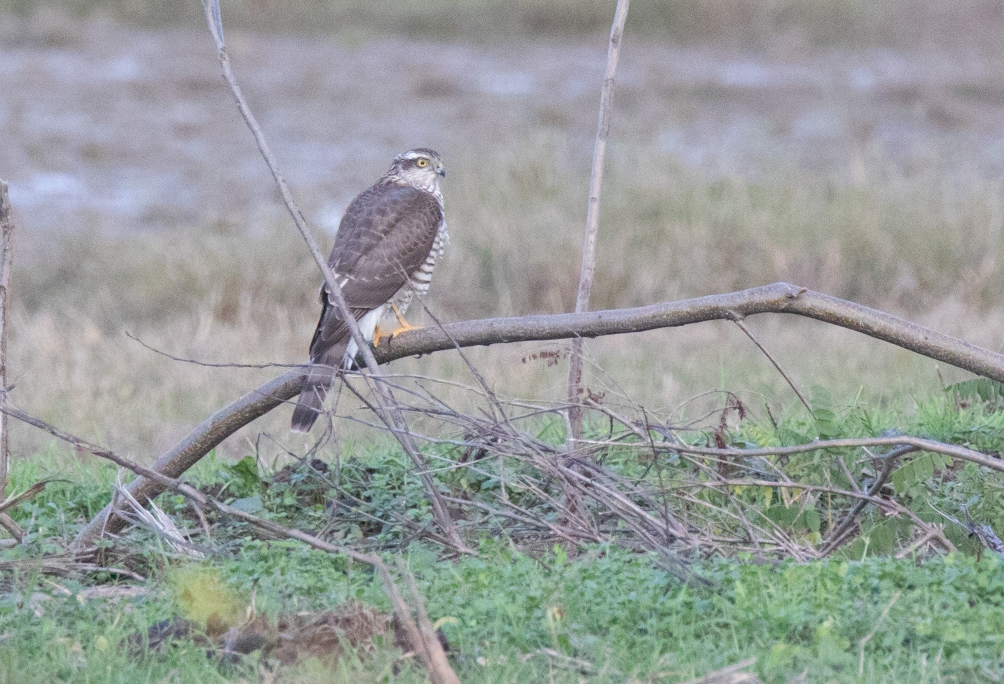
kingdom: Animalia
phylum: Chordata
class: Aves
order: Accipitriformes
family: Accipitridae
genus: Accipiter
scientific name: Accipiter nisus
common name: Eurasian sparrowhawk
